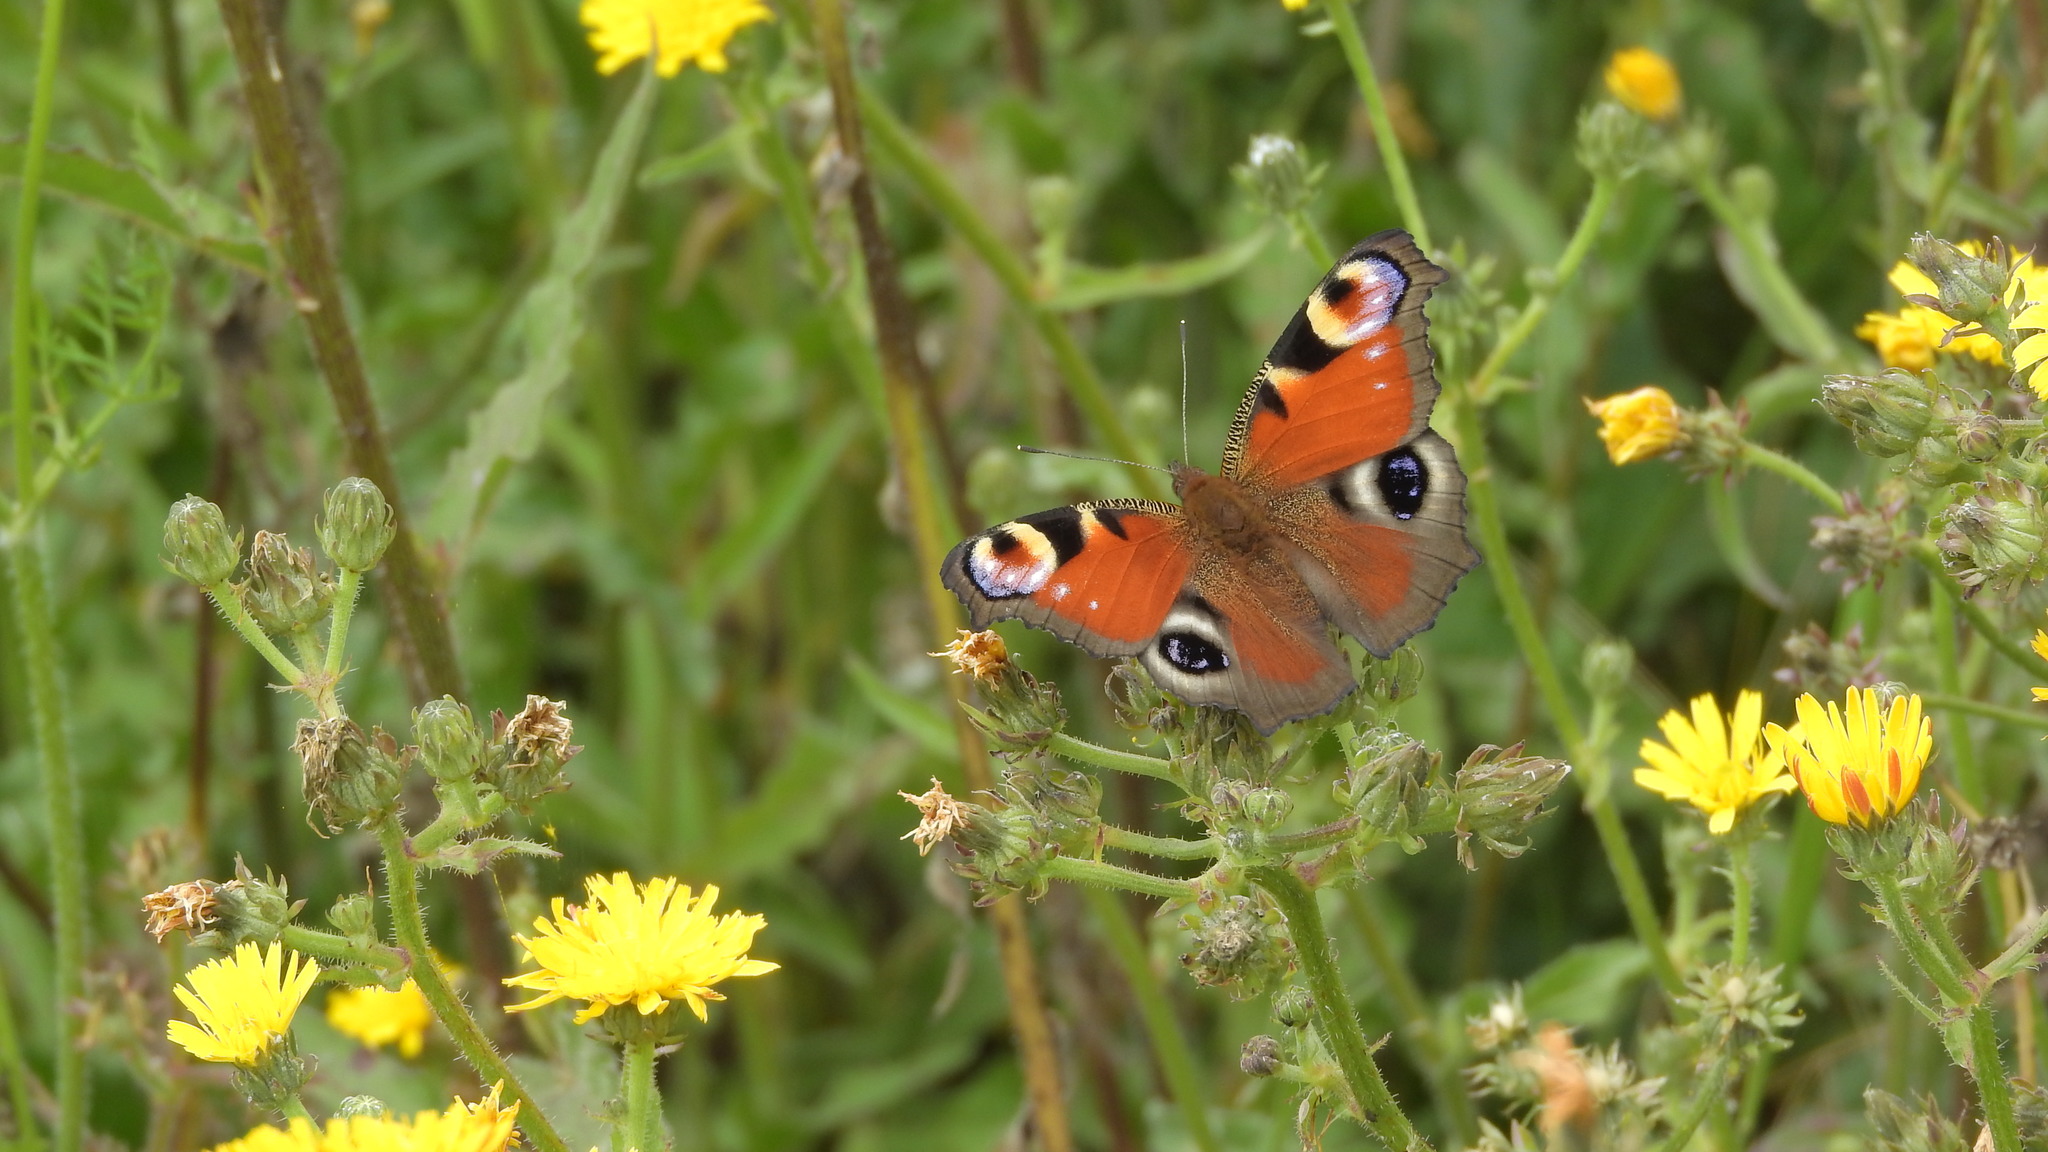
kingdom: Animalia
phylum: Arthropoda
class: Insecta
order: Lepidoptera
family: Nymphalidae
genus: Aglais
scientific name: Aglais io
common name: Peacock
